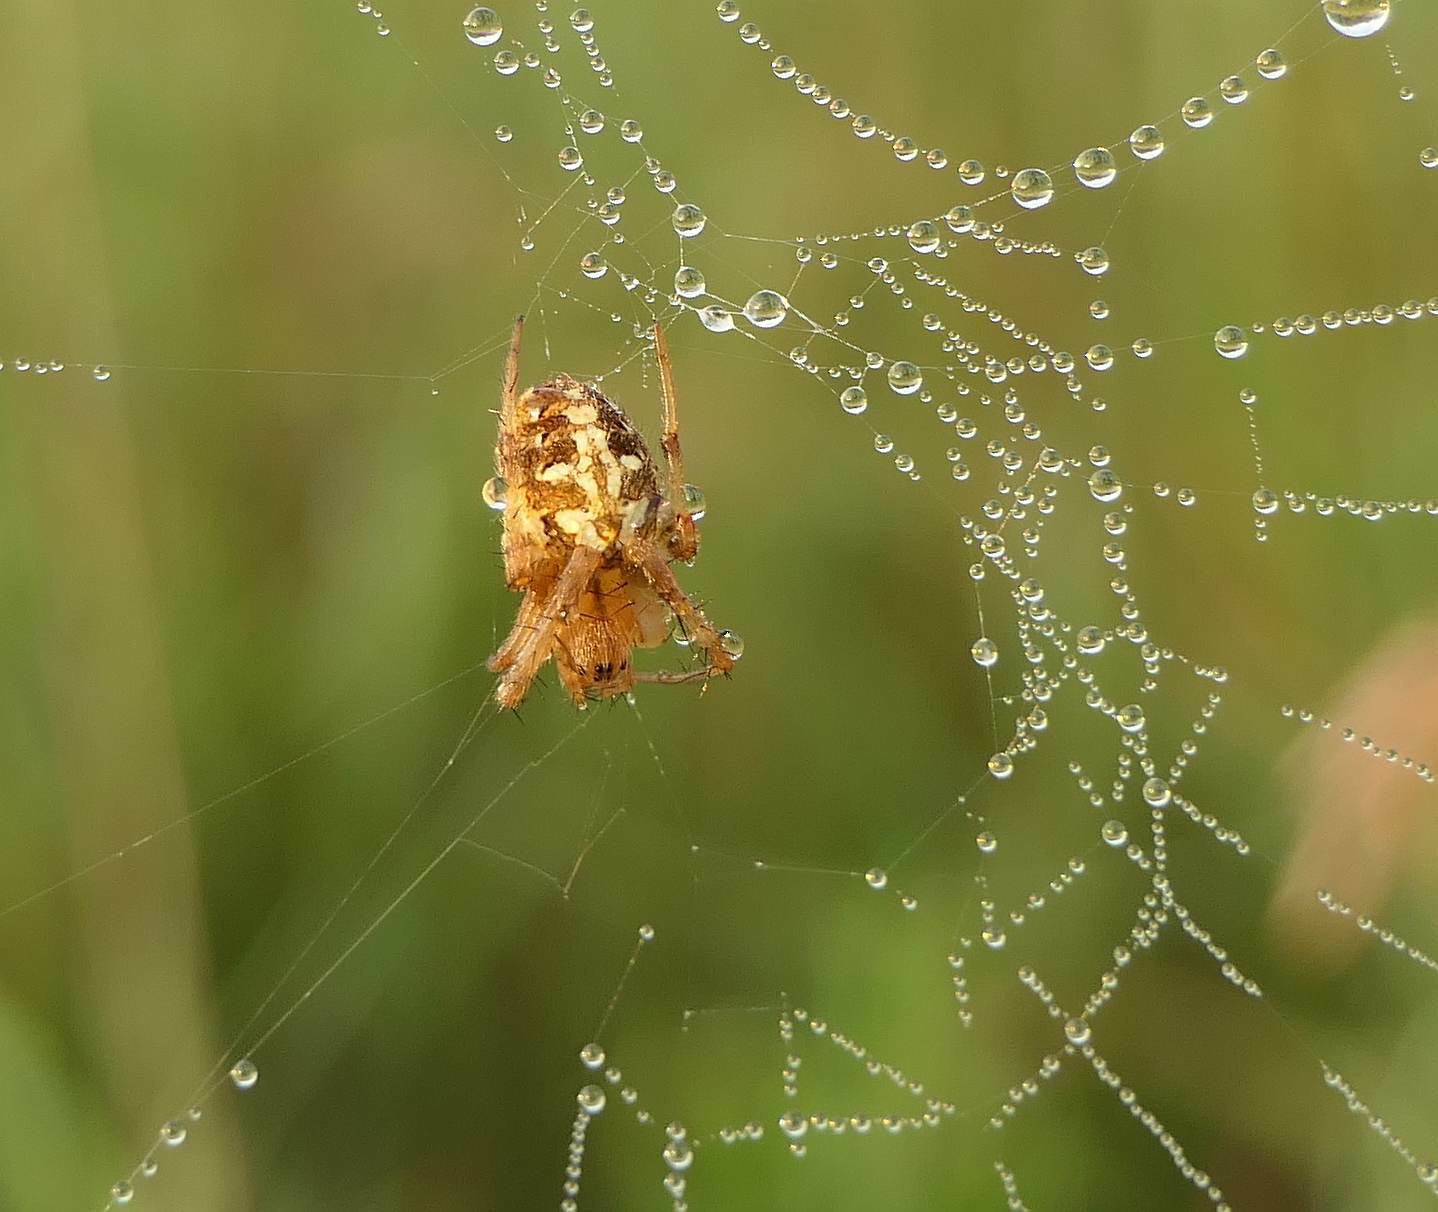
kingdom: Animalia
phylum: Arthropoda
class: Arachnida
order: Araneae
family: Araneidae
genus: Neoscona
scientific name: Neoscona arabesca
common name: Orb weavers
